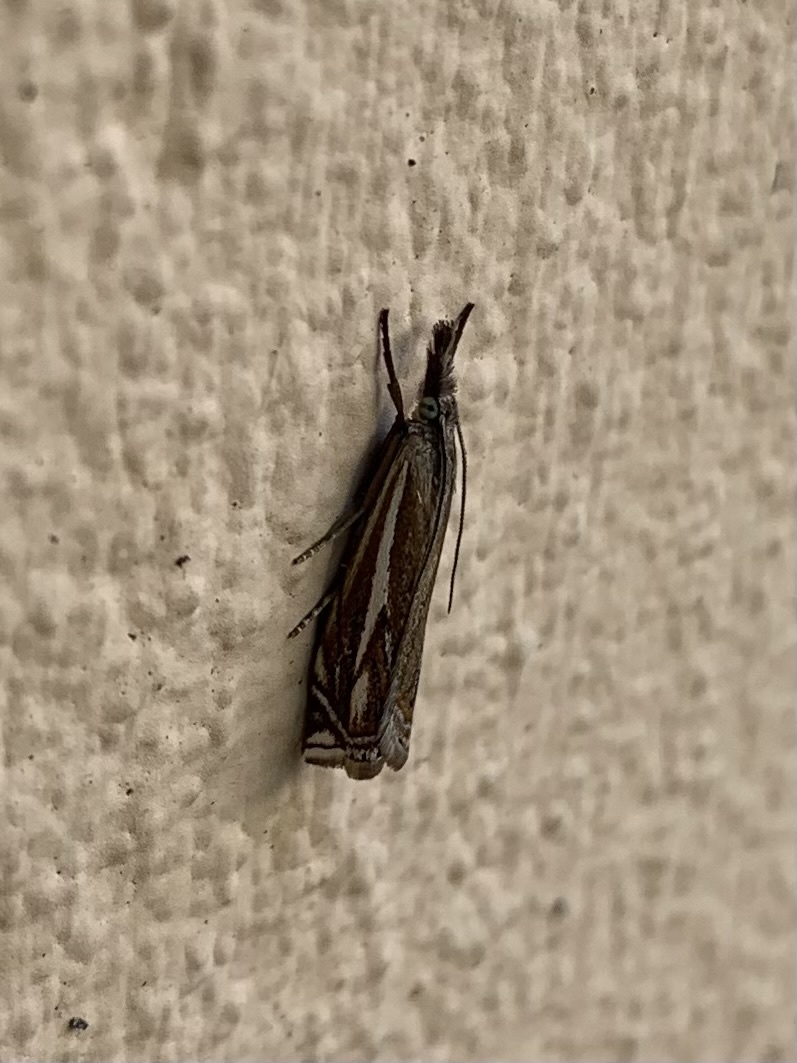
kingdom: Animalia
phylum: Arthropoda
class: Insecta
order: Lepidoptera
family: Crambidae
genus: Crambus
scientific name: Crambus nemorella
